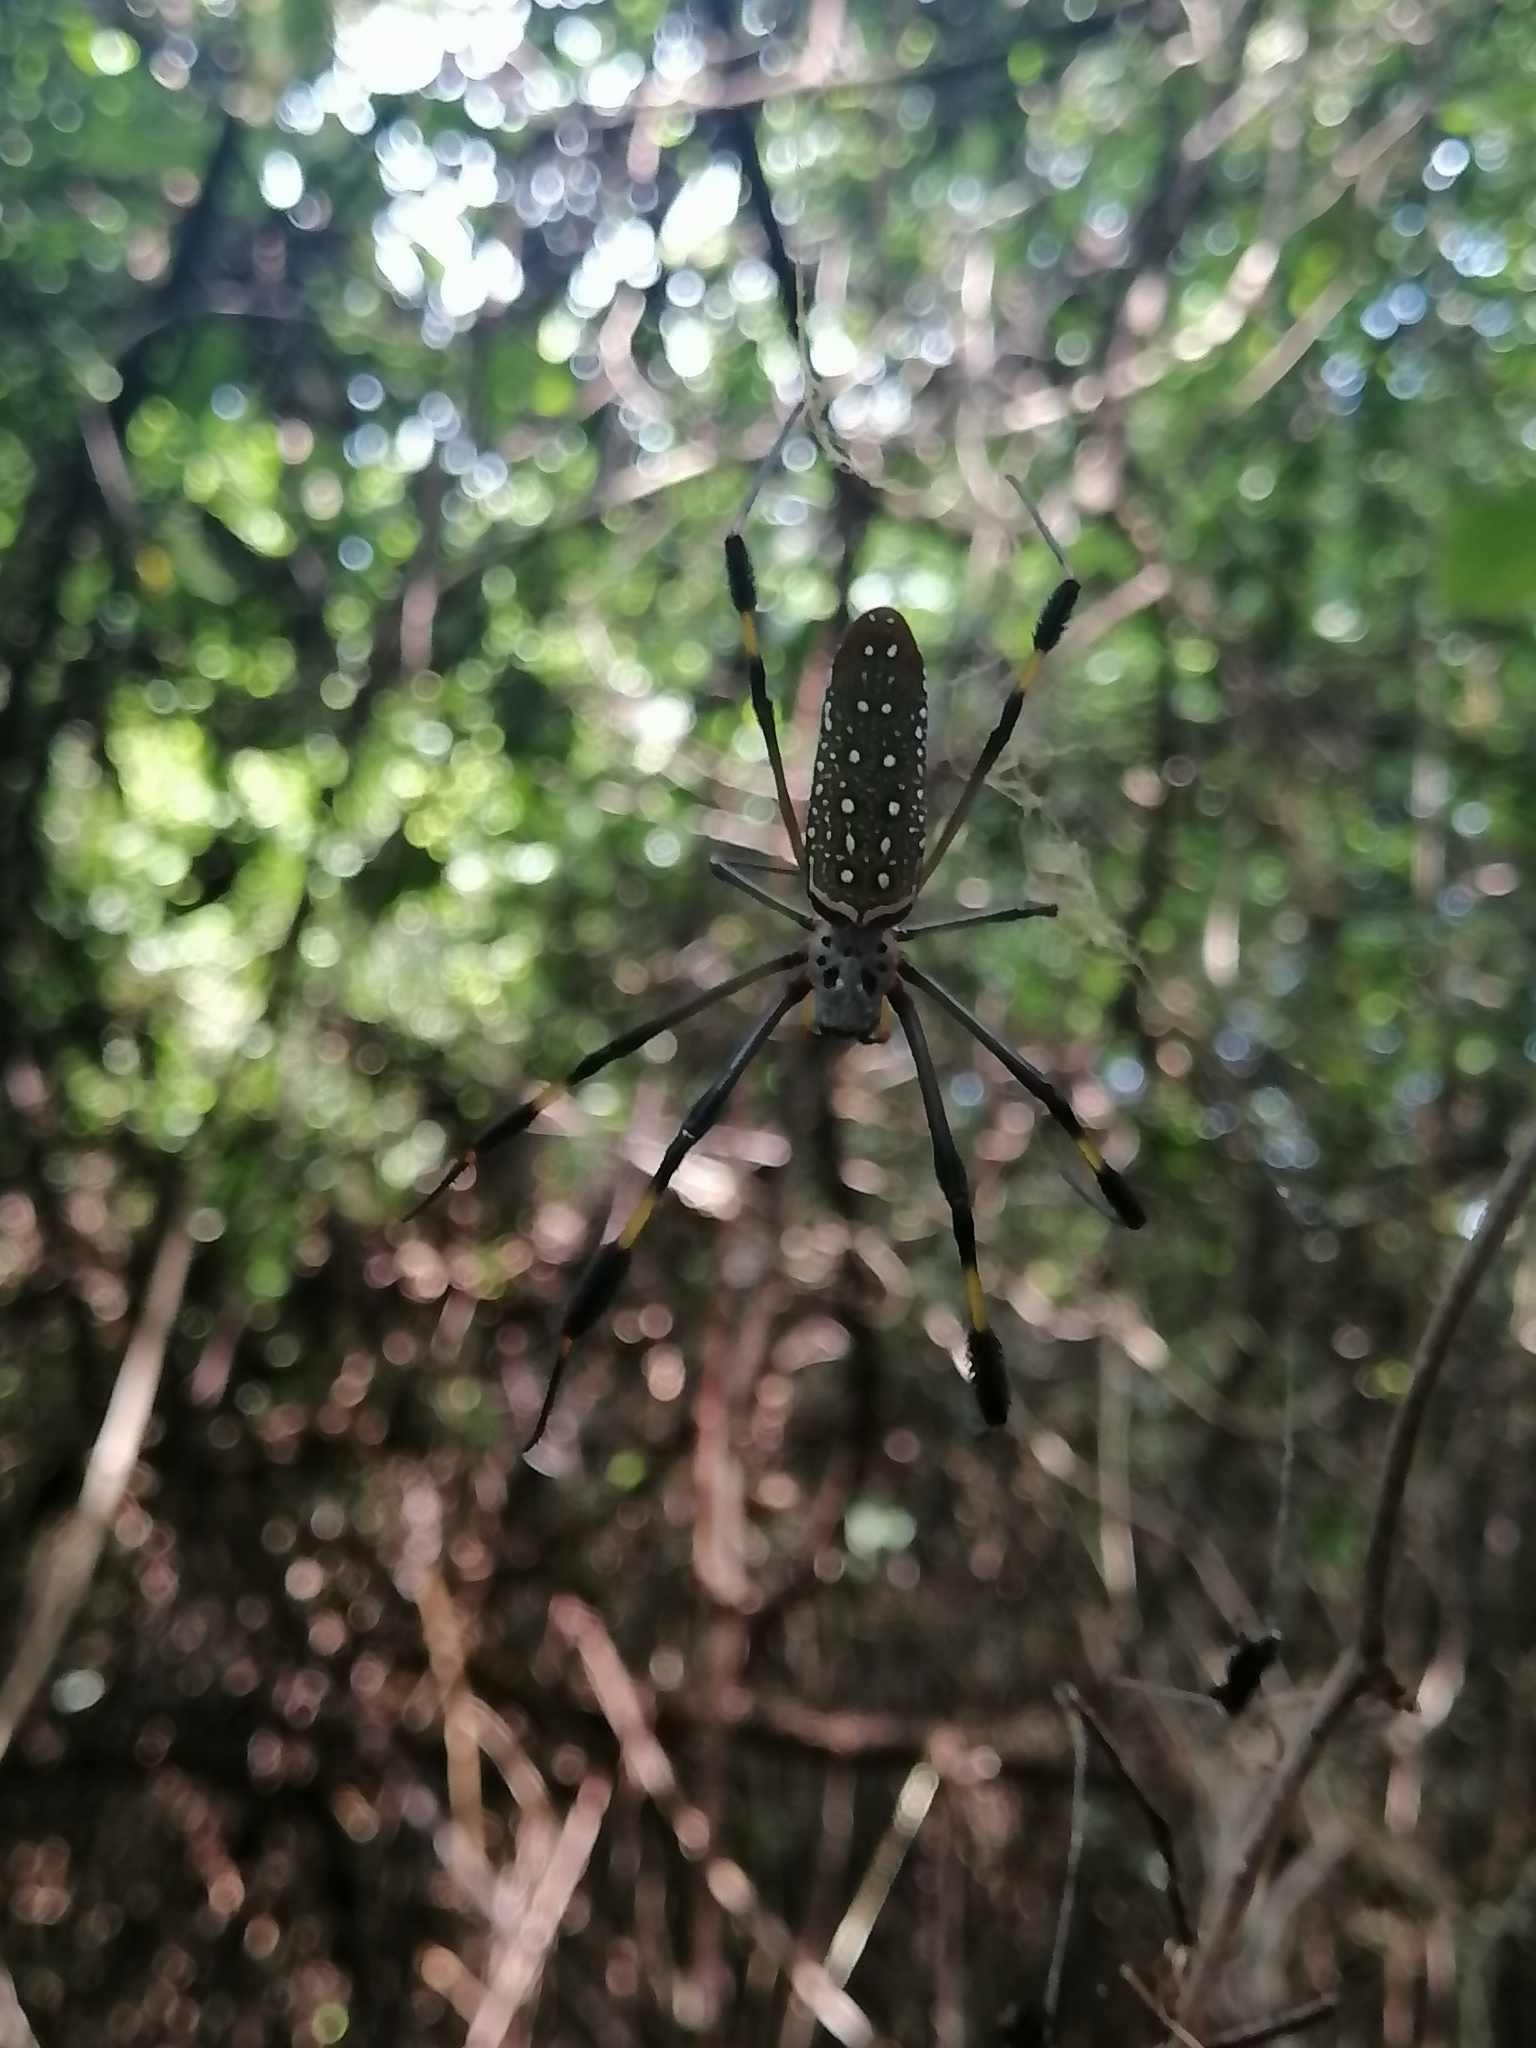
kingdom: Animalia
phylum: Arthropoda
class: Arachnida
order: Araneae
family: Araneidae
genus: Trichonephila
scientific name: Trichonephila clavipes
